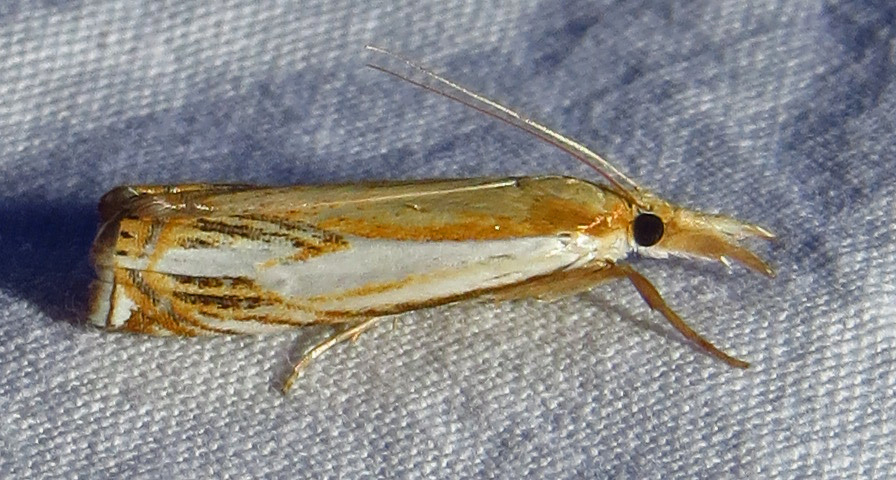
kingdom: Animalia
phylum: Arthropoda
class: Insecta
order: Lepidoptera
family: Crambidae
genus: Crambus
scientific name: Crambus agitatellus
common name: Double-banded grass-veneer
